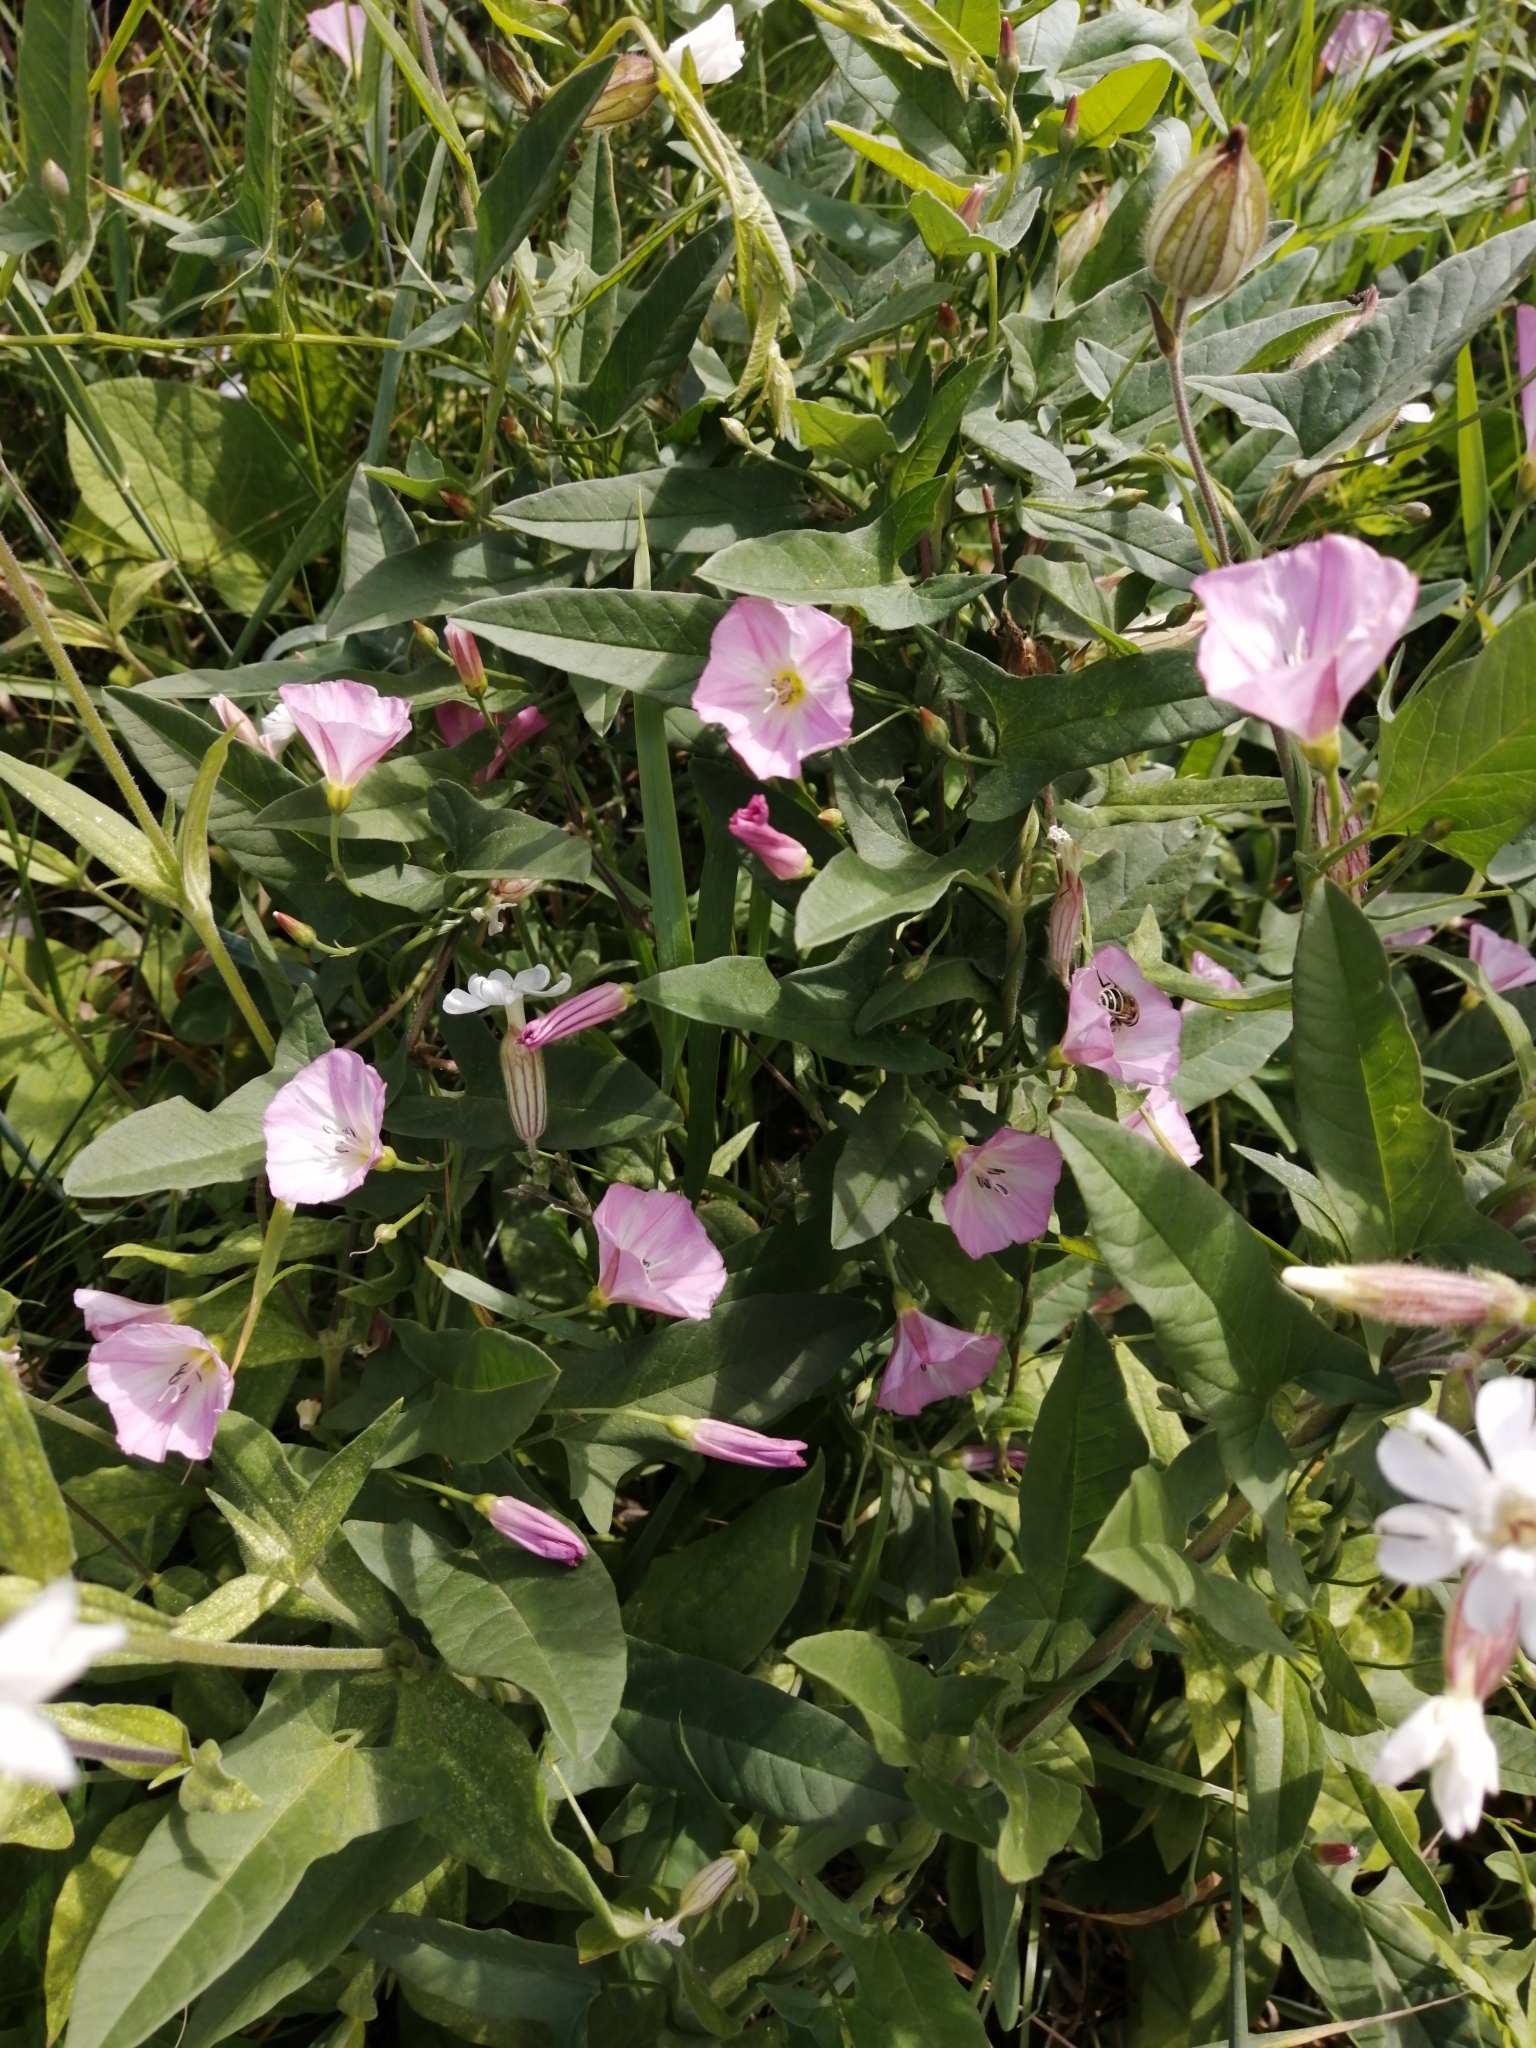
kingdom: Plantae
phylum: Tracheophyta
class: Magnoliopsida
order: Solanales
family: Convolvulaceae
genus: Convolvulus
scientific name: Convolvulus arvensis
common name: Field bindweed
